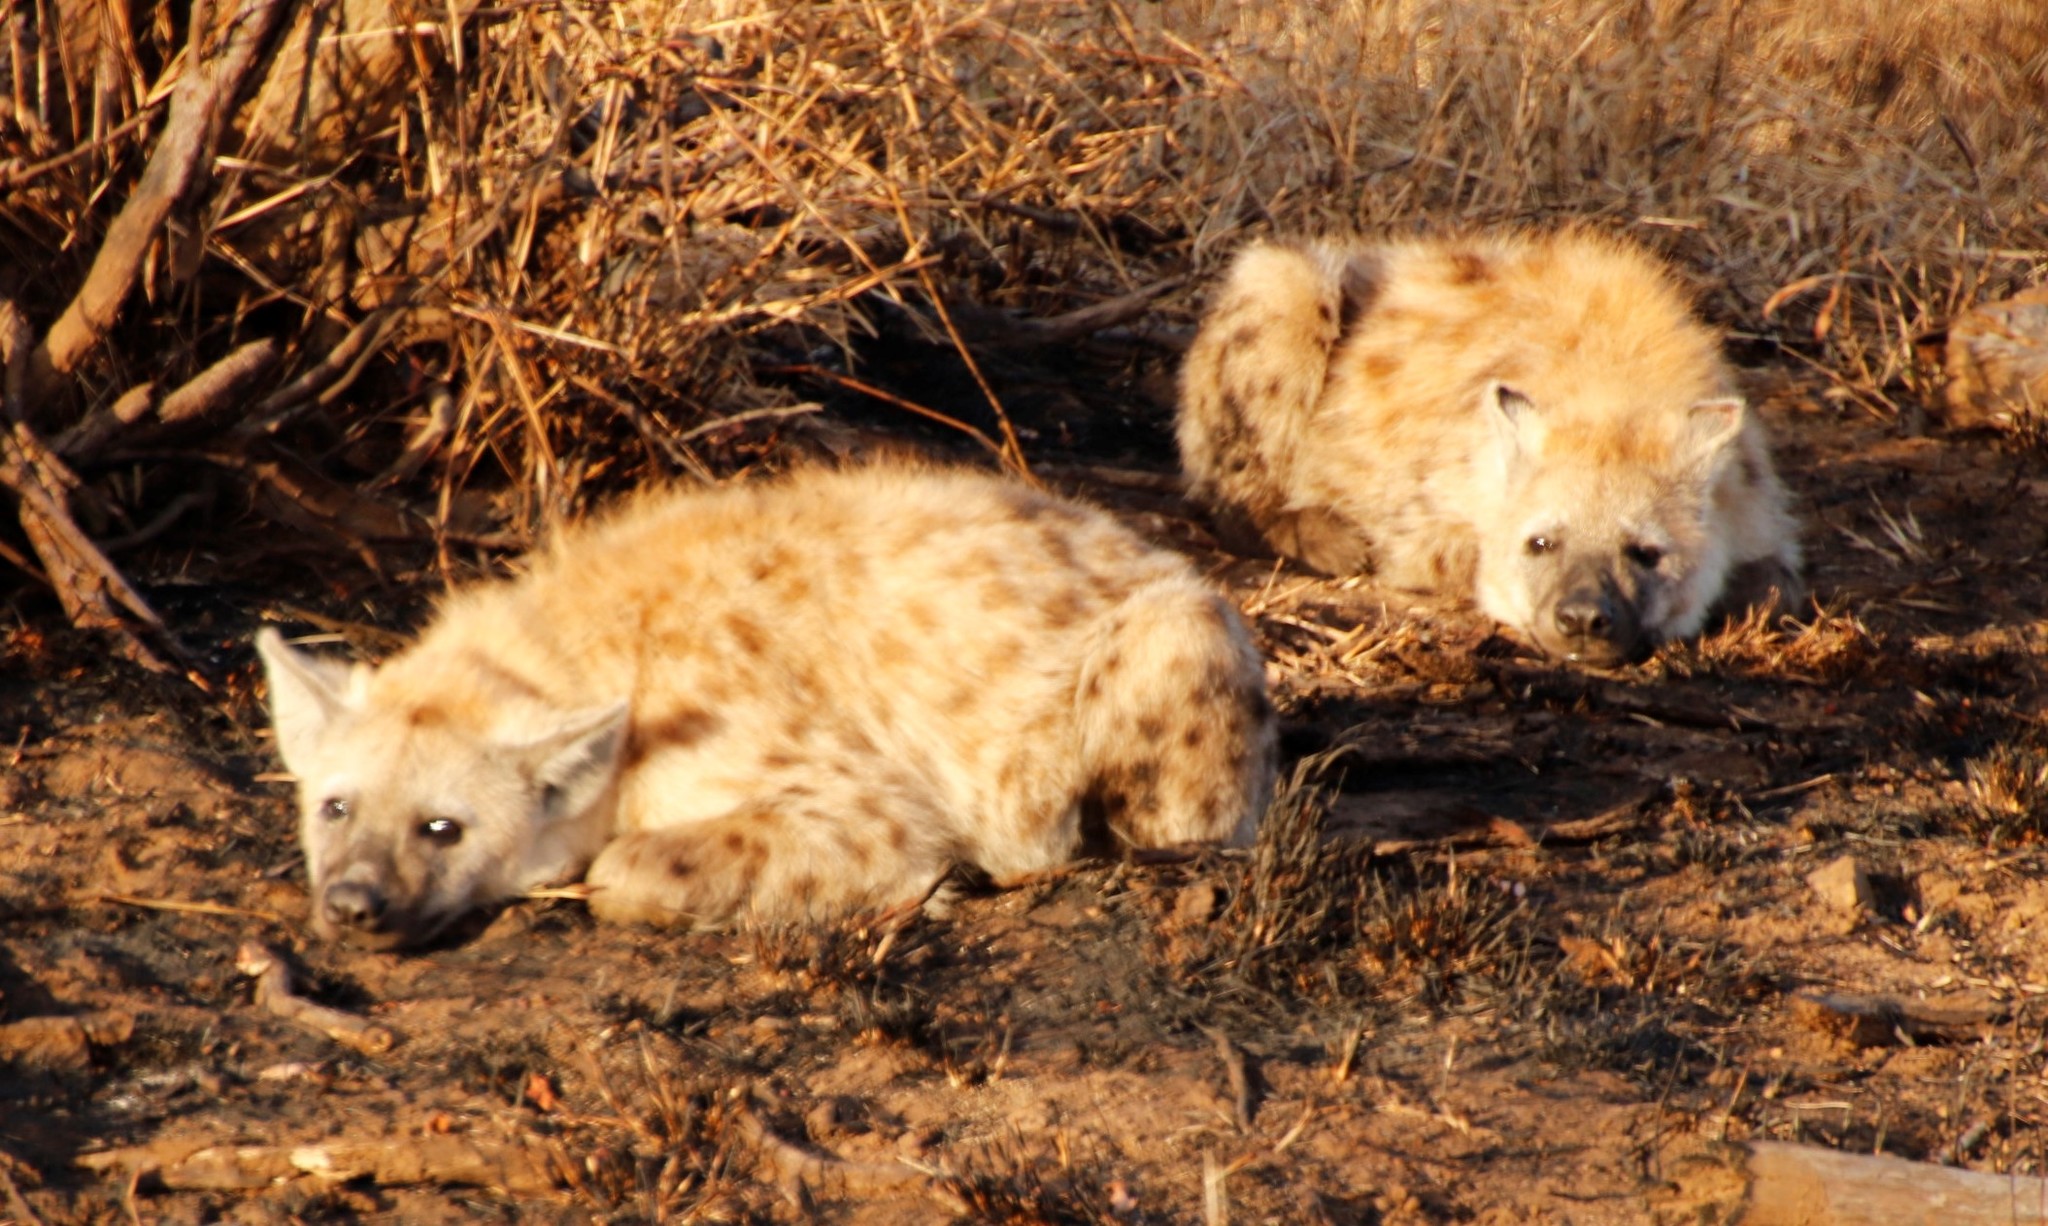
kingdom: Animalia
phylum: Chordata
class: Mammalia
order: Carnivora
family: Hyaenidae
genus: Crocuta
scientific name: Crocuta crocuta
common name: Spotted hyaena
